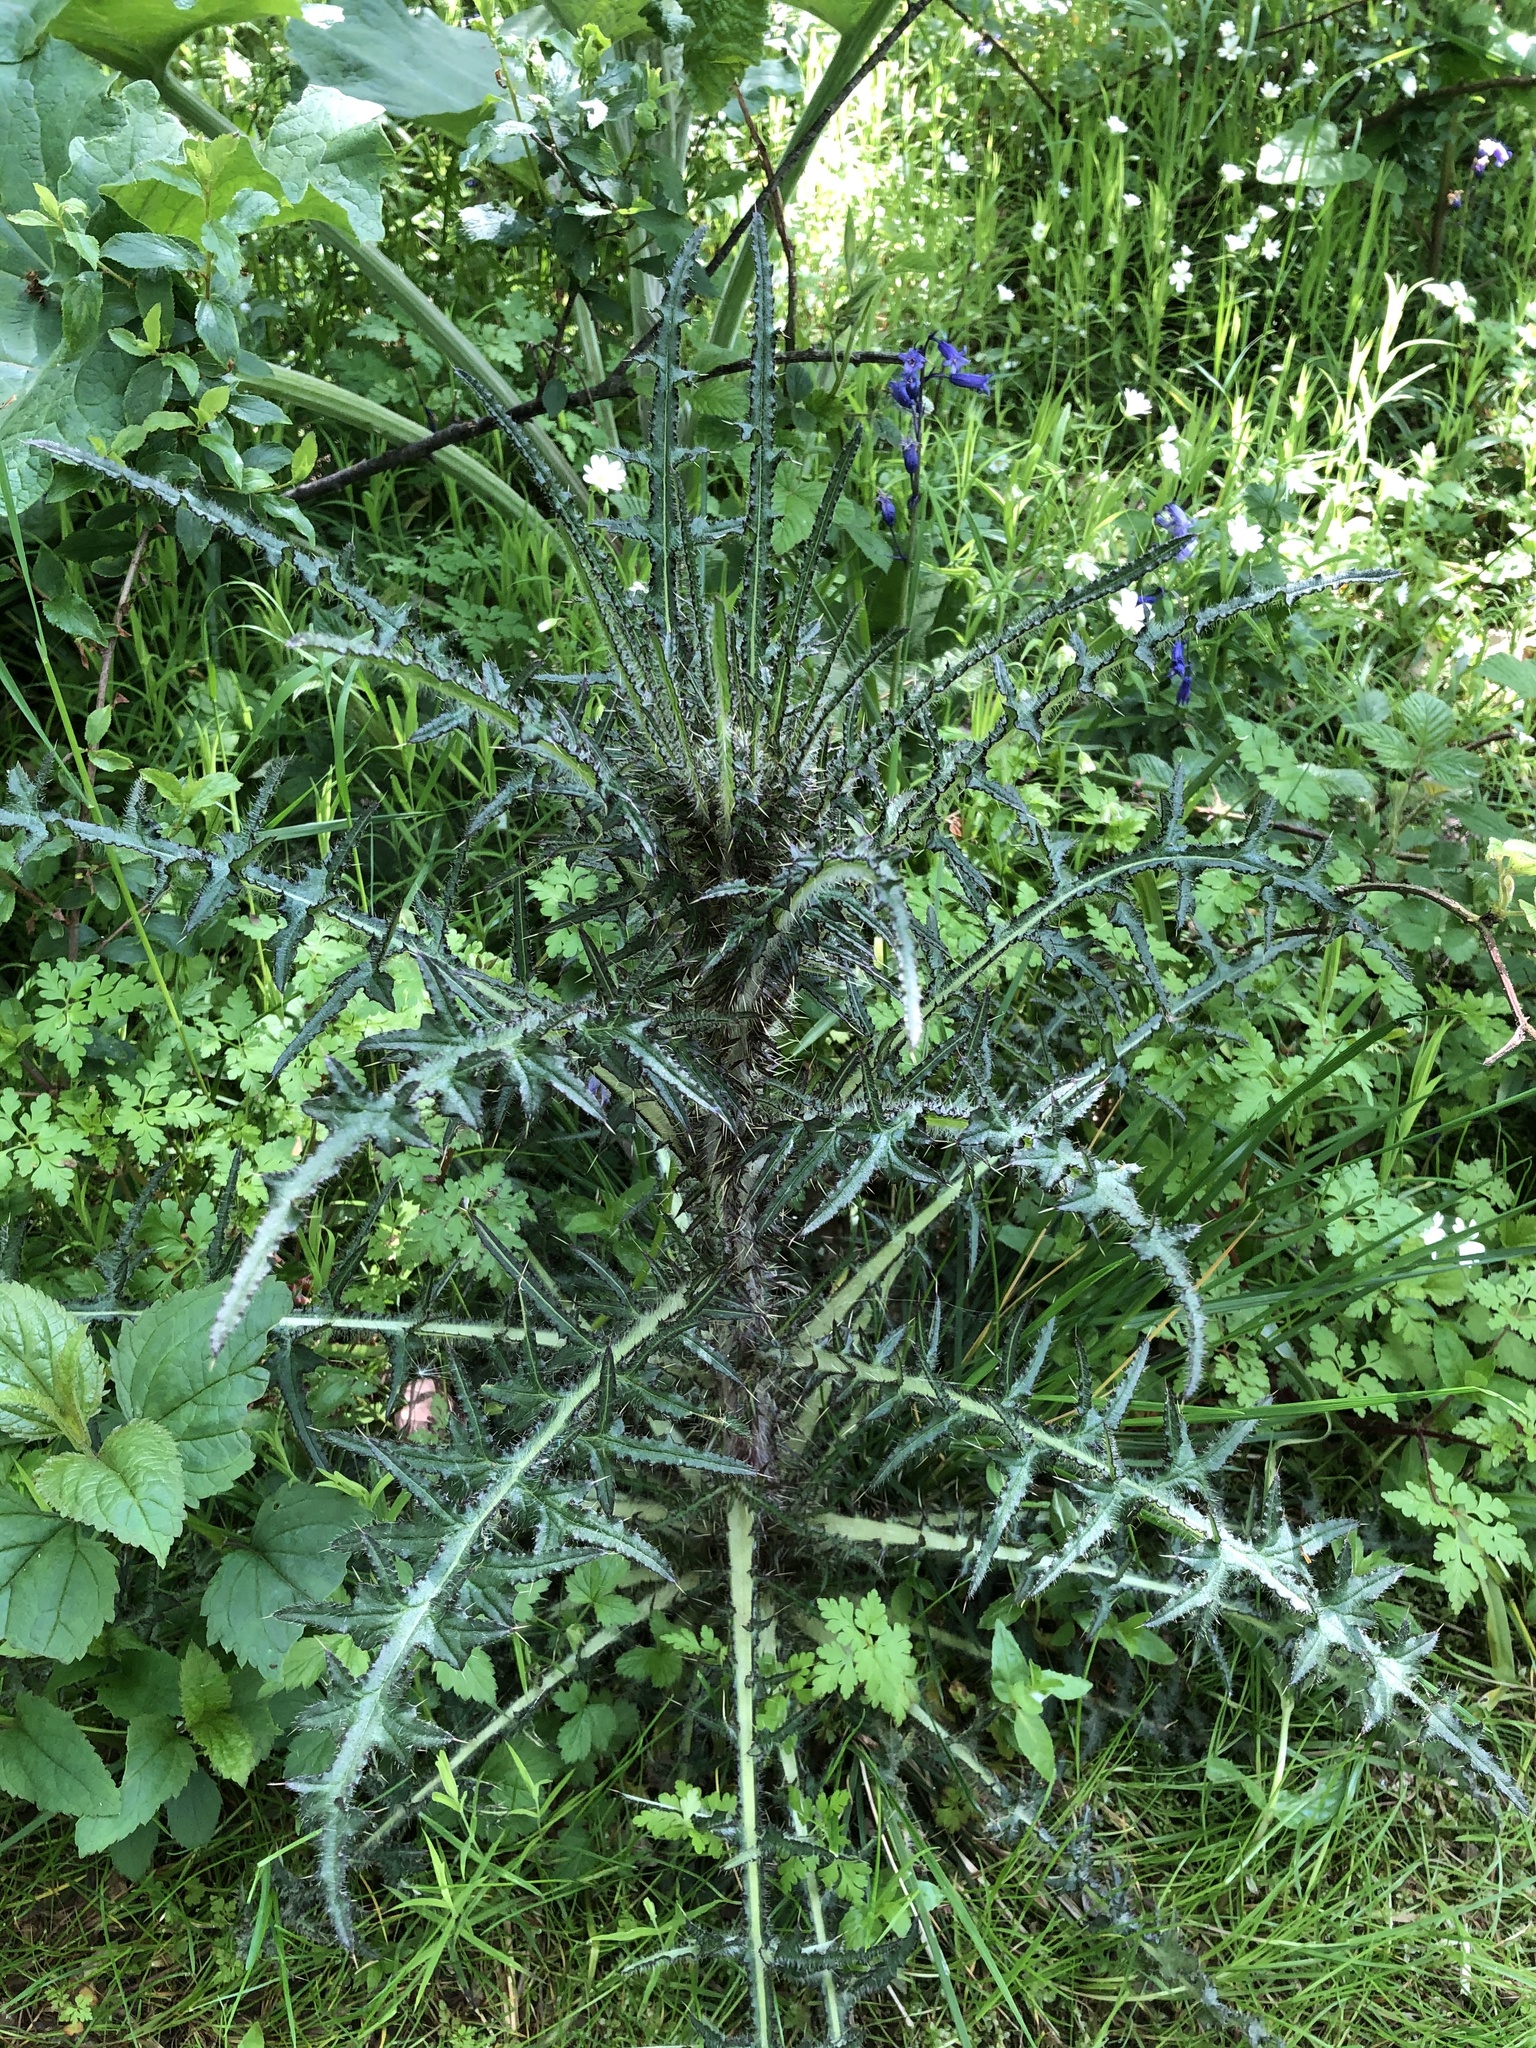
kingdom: Plantae
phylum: Tracheophyta
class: Magnoliopsida
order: Asterales
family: Asteraceae
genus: Cirsium
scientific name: Cirsium palustre
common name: Marsh thistle
